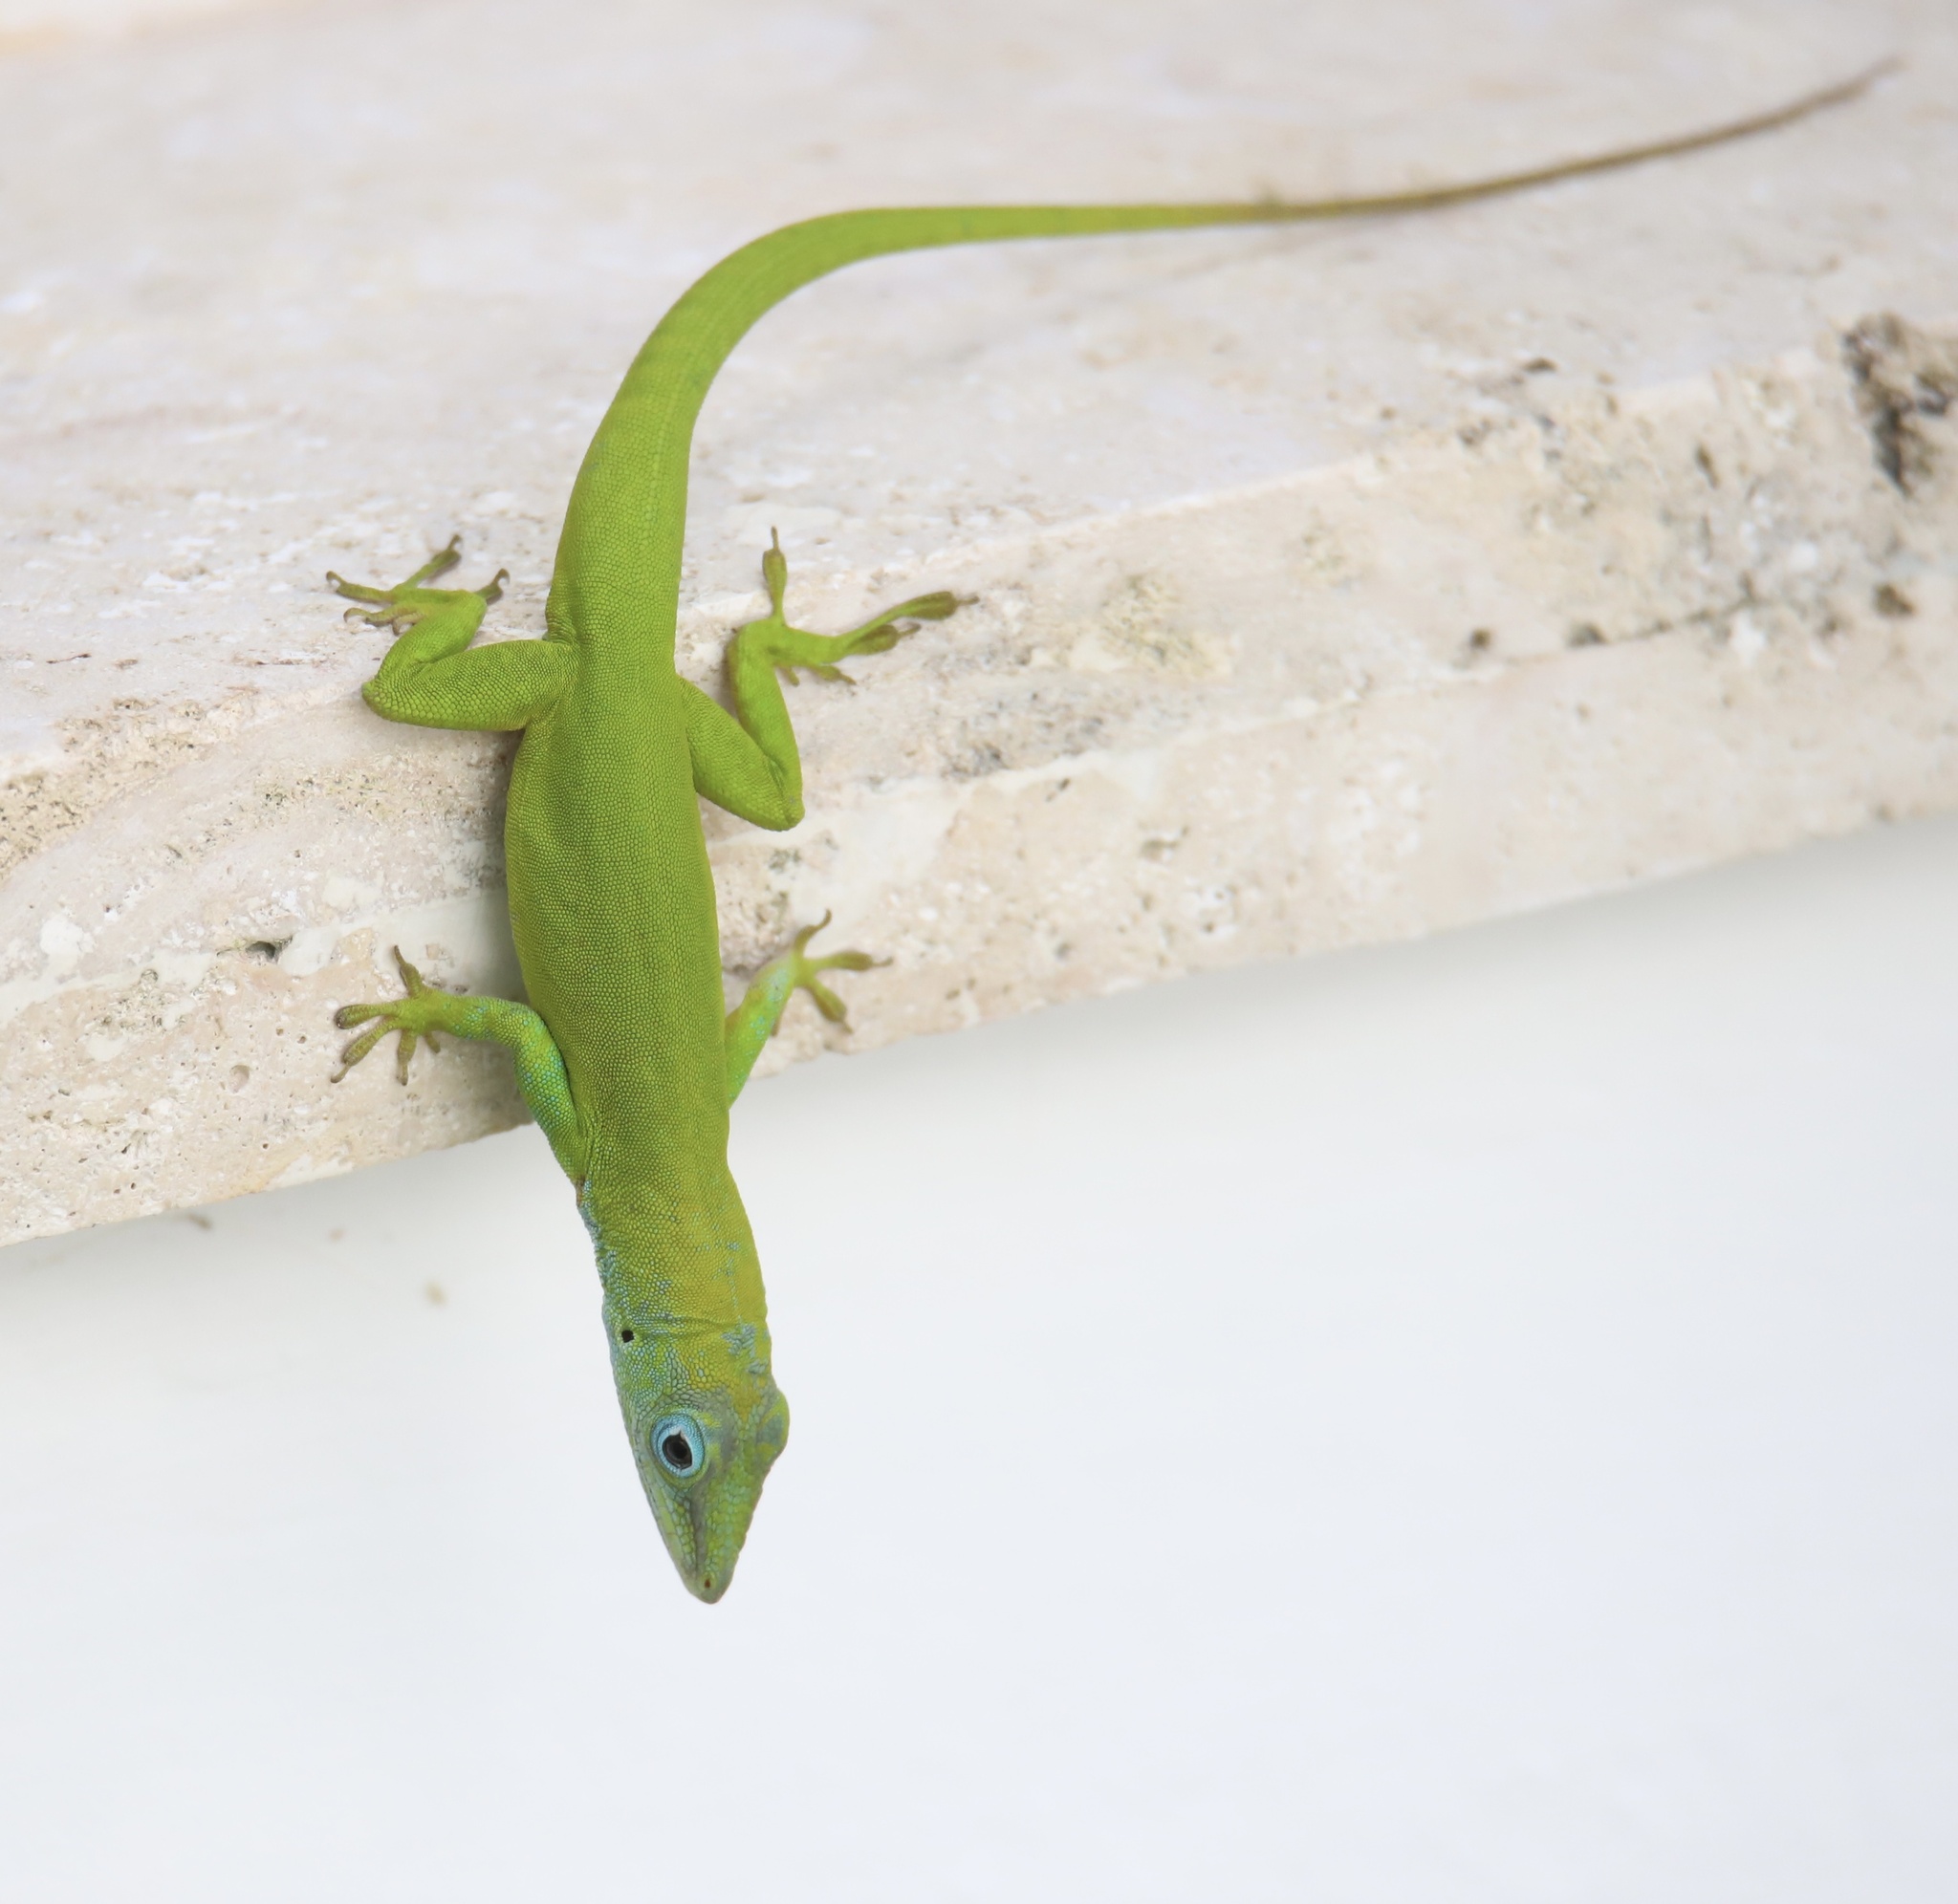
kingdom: Animalia
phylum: Chordata
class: Squamata
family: Dactyloidae
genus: Anolis
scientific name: Anolis callainus
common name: Dominican green anole
